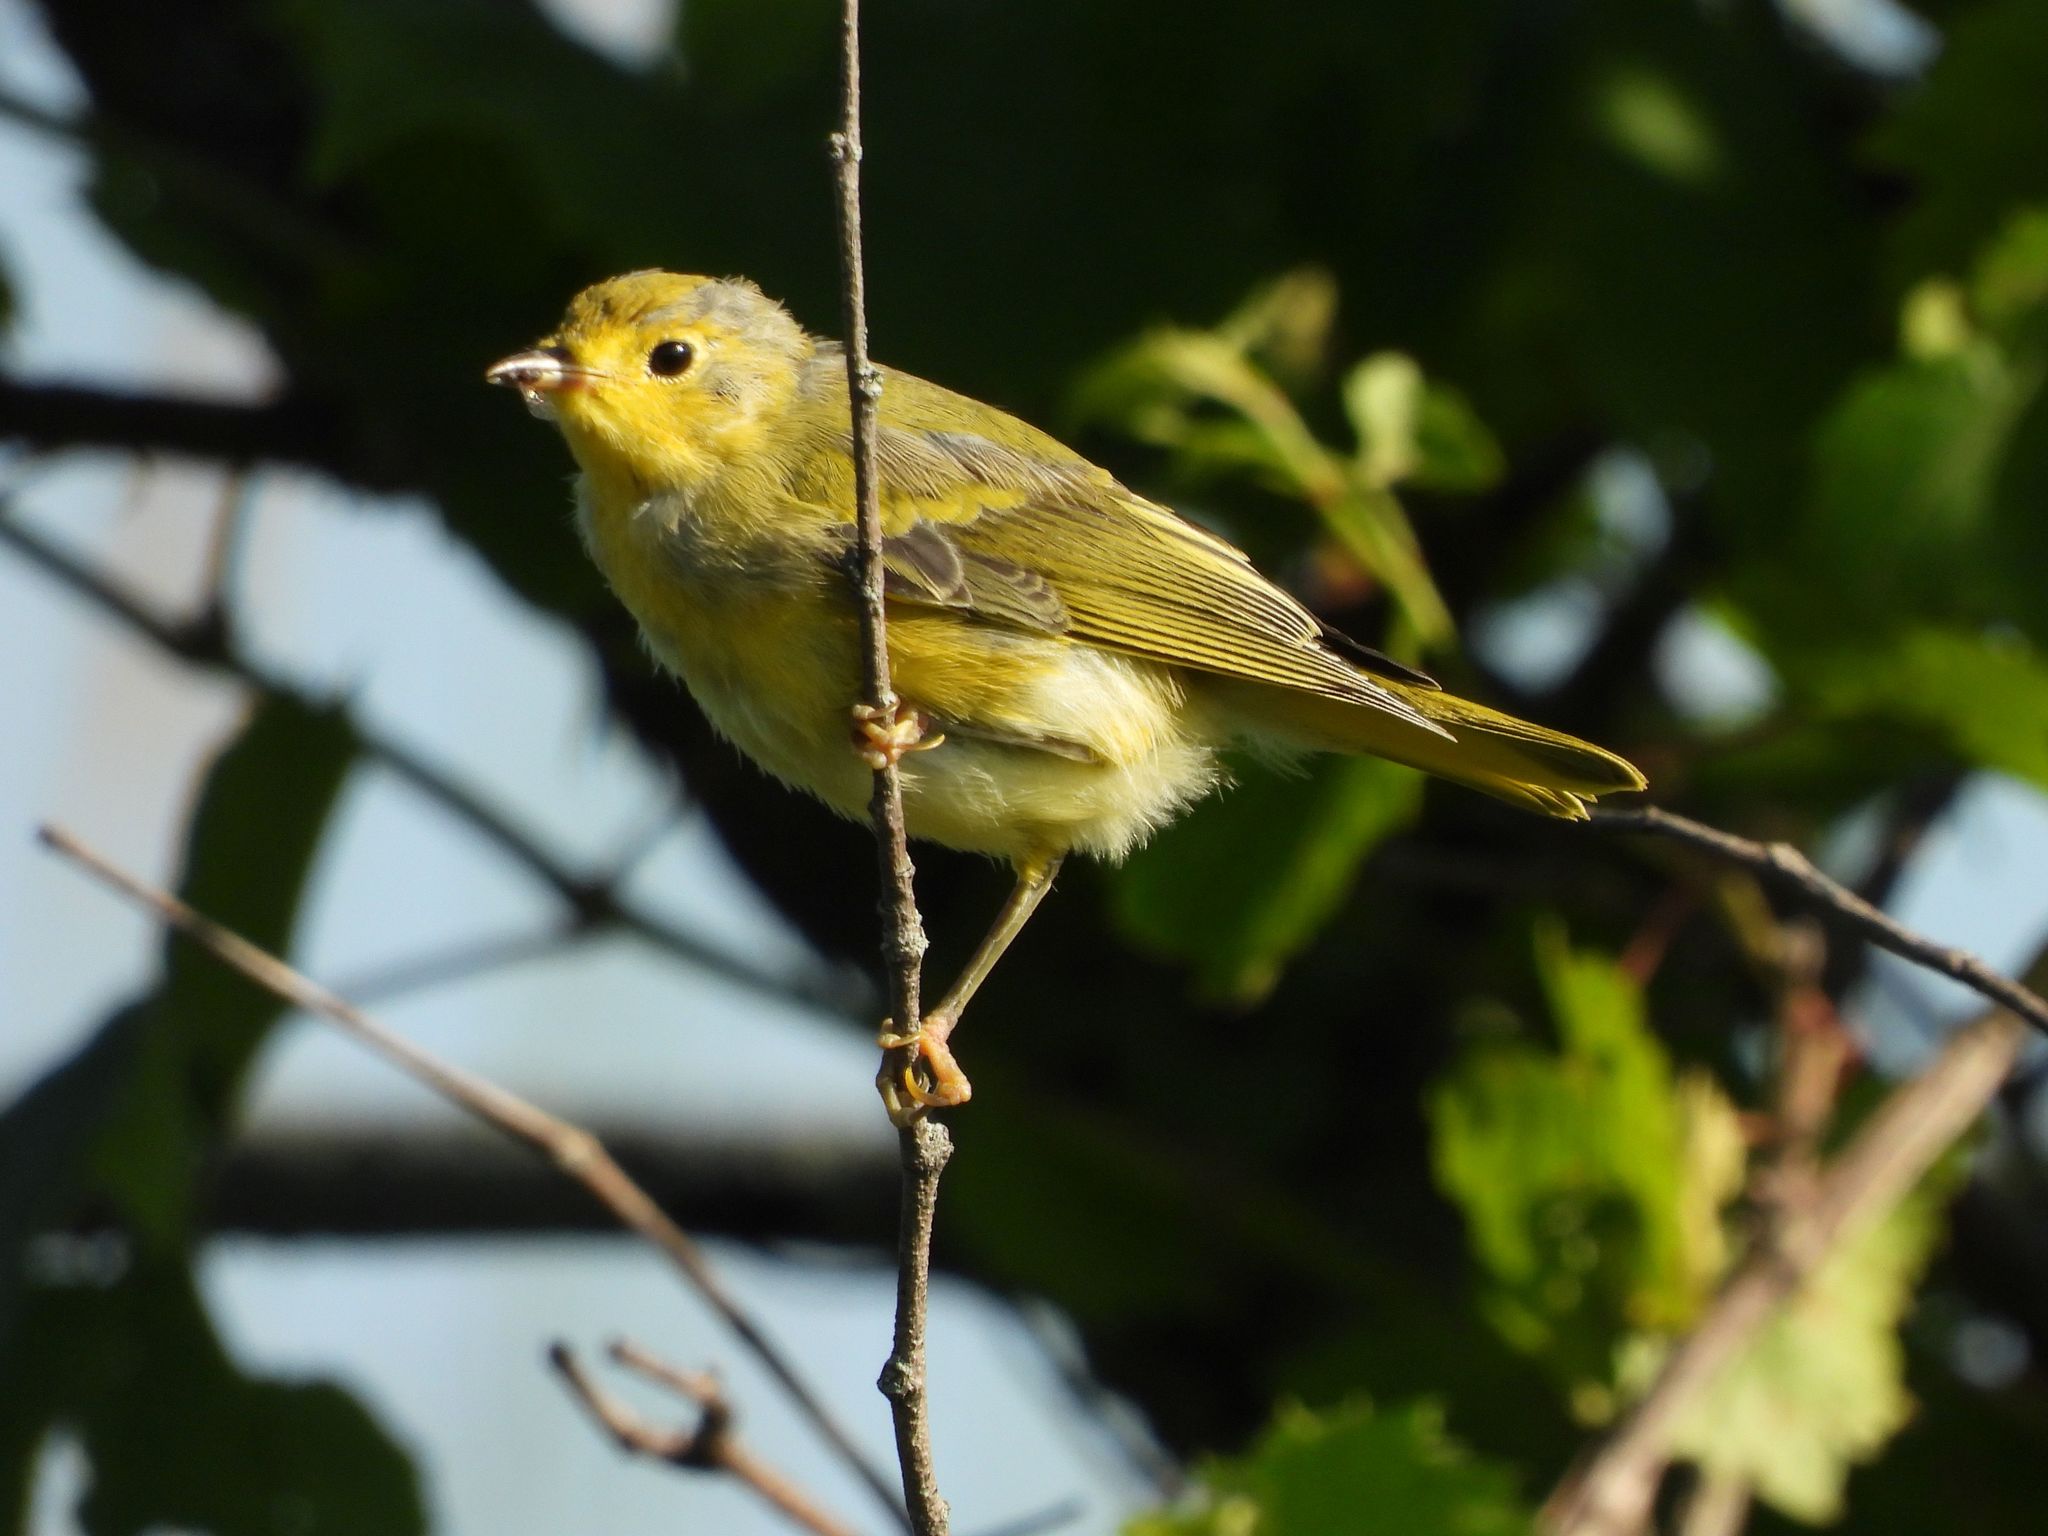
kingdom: Animalia
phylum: Chordata
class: Aves
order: Passeriformes
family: Parulidae
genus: Setophaga
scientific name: Setophaga petechia
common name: Yellow warbler
